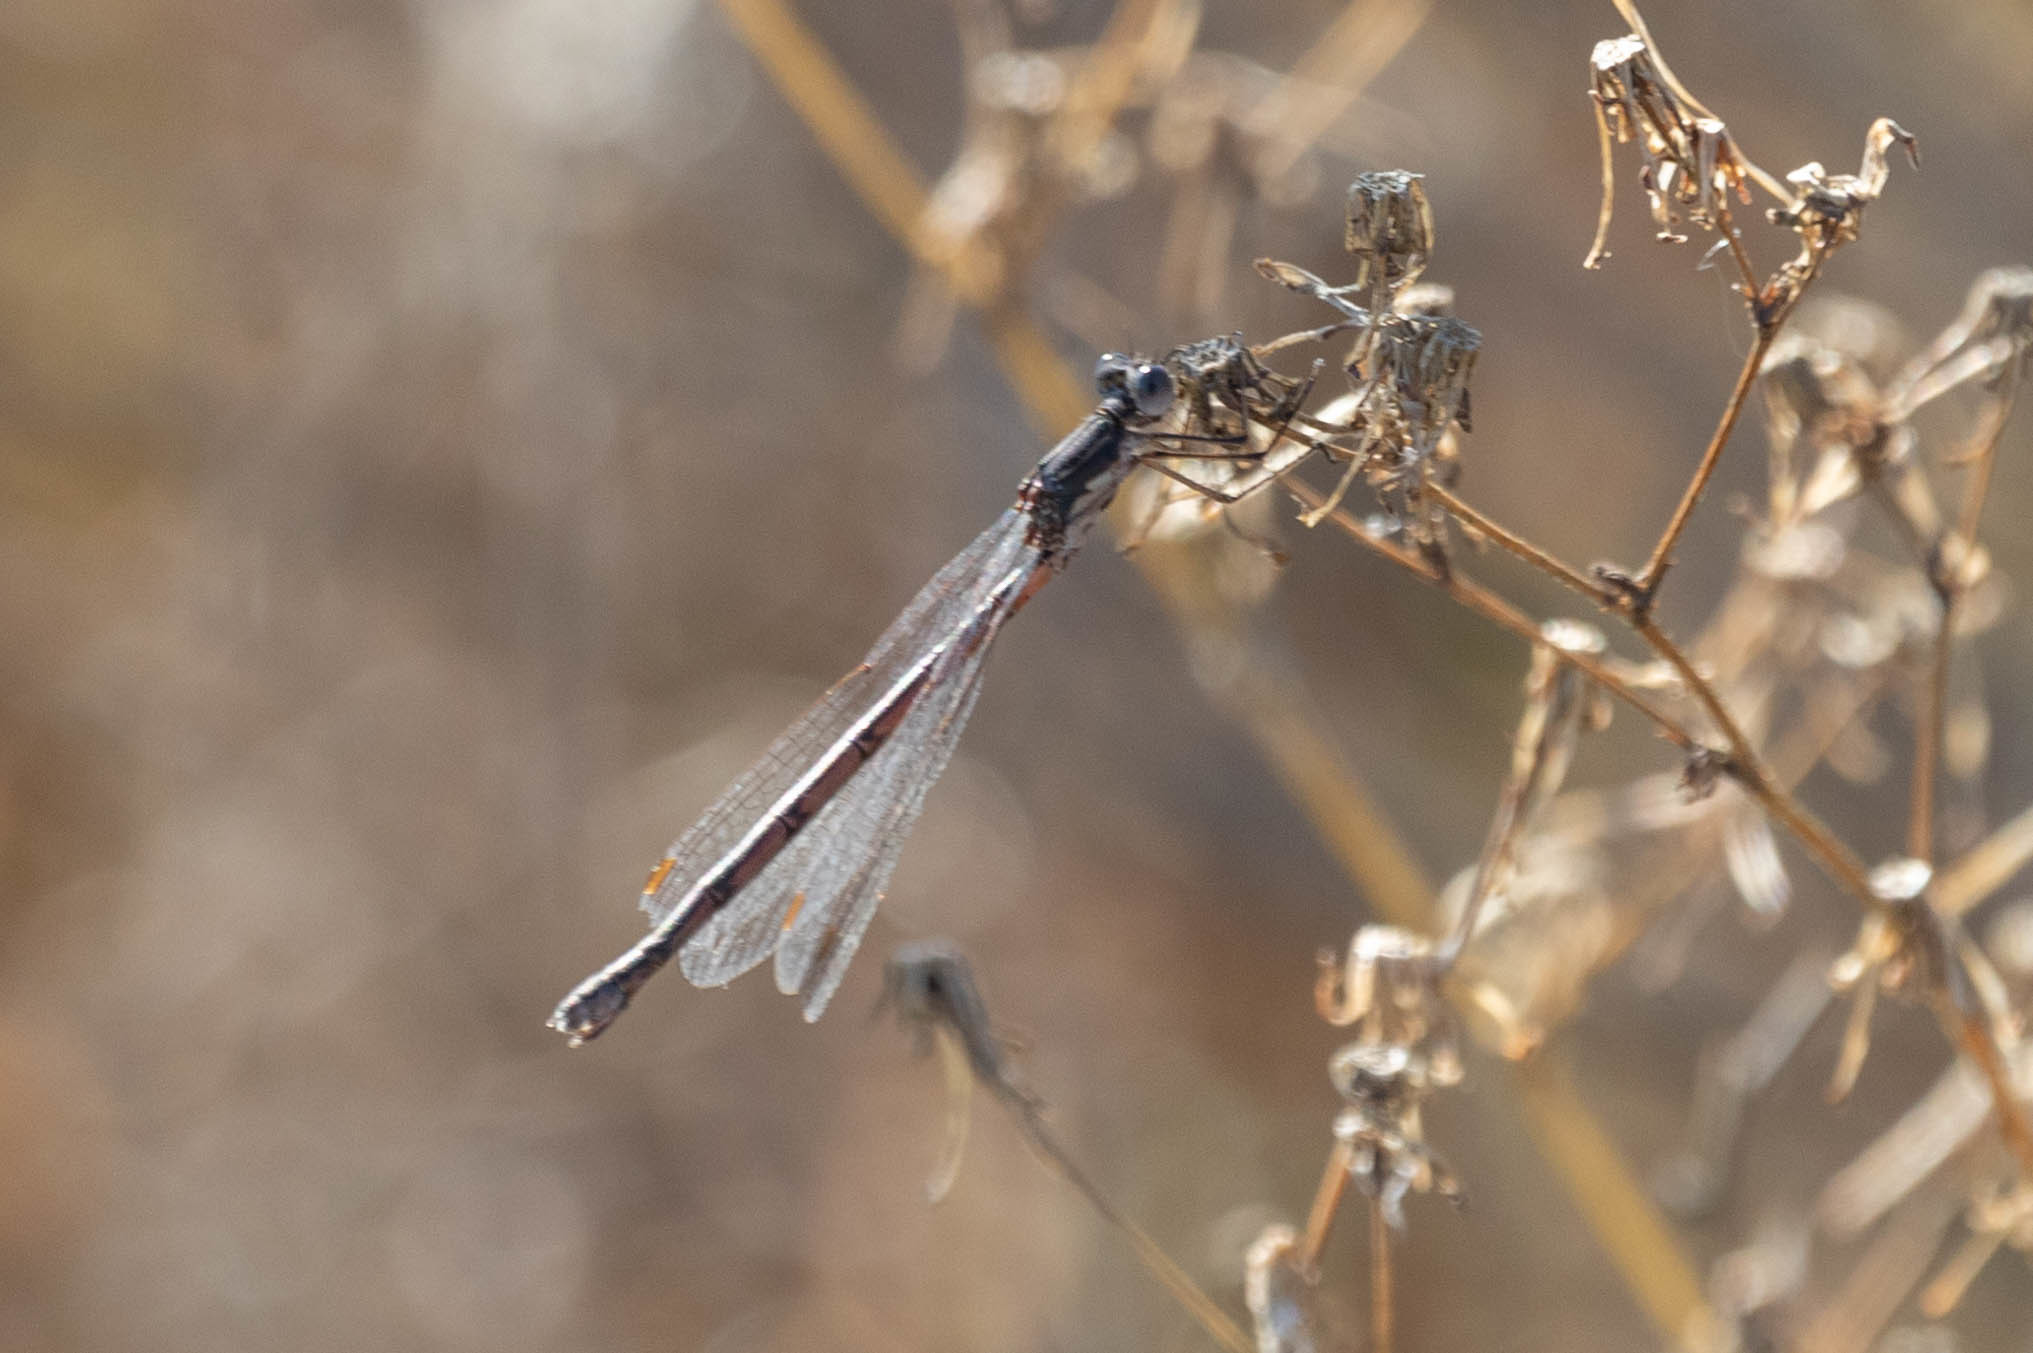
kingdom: Animalia
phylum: Arthropoda
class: Insecta
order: Odonata
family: Lestidae
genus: Lestes
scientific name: Lestes congener
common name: Spotted spreadwing
